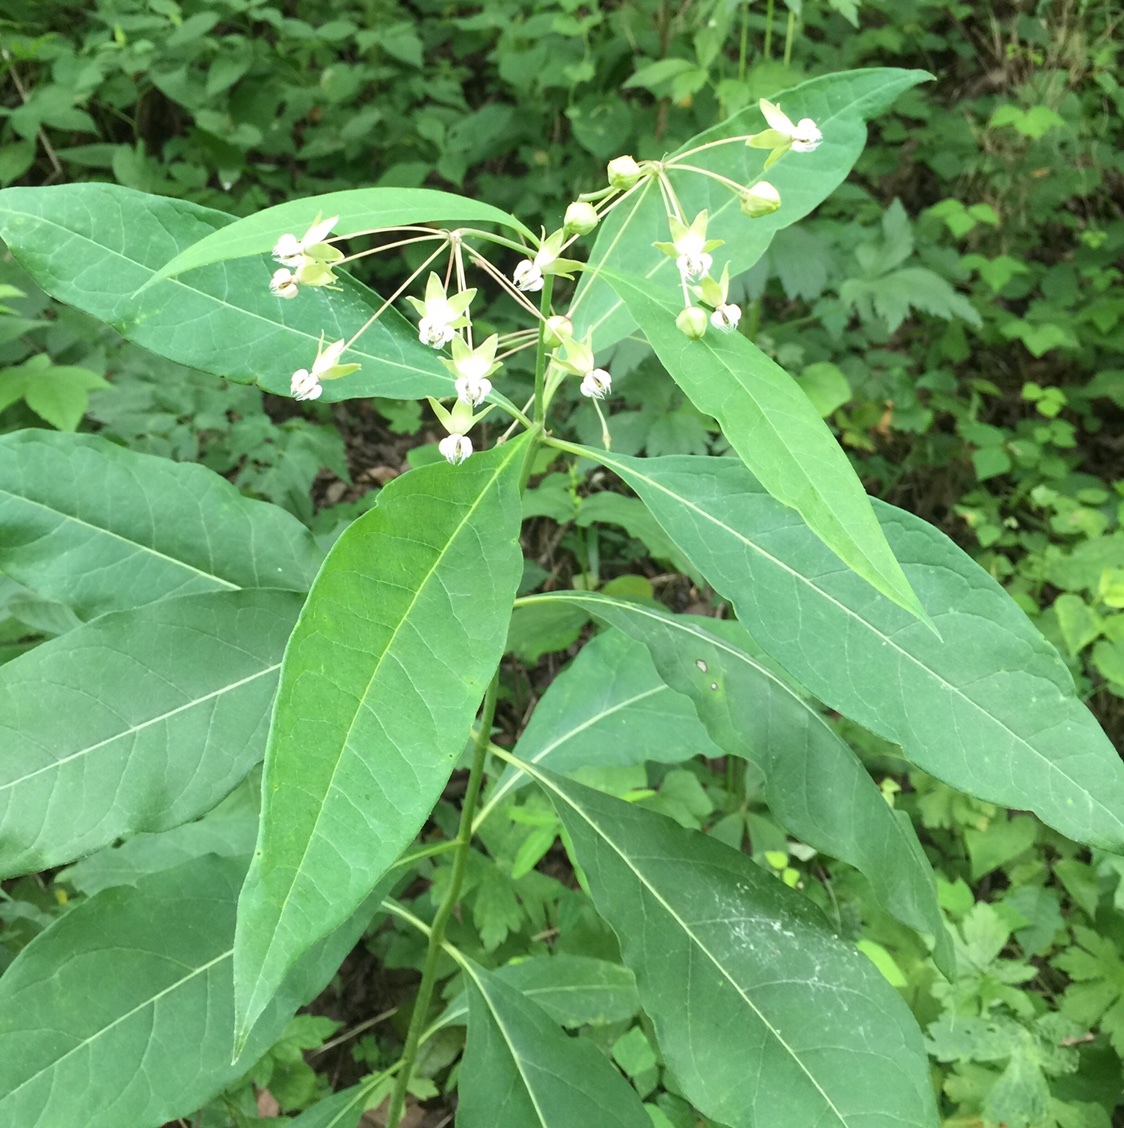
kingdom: Plantae
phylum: Tracheophyta
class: Magnoliopsida
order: Gentianales
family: Apocynaceae
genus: Asclepias
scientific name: Asclepias exaltata
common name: Poke milkweed
